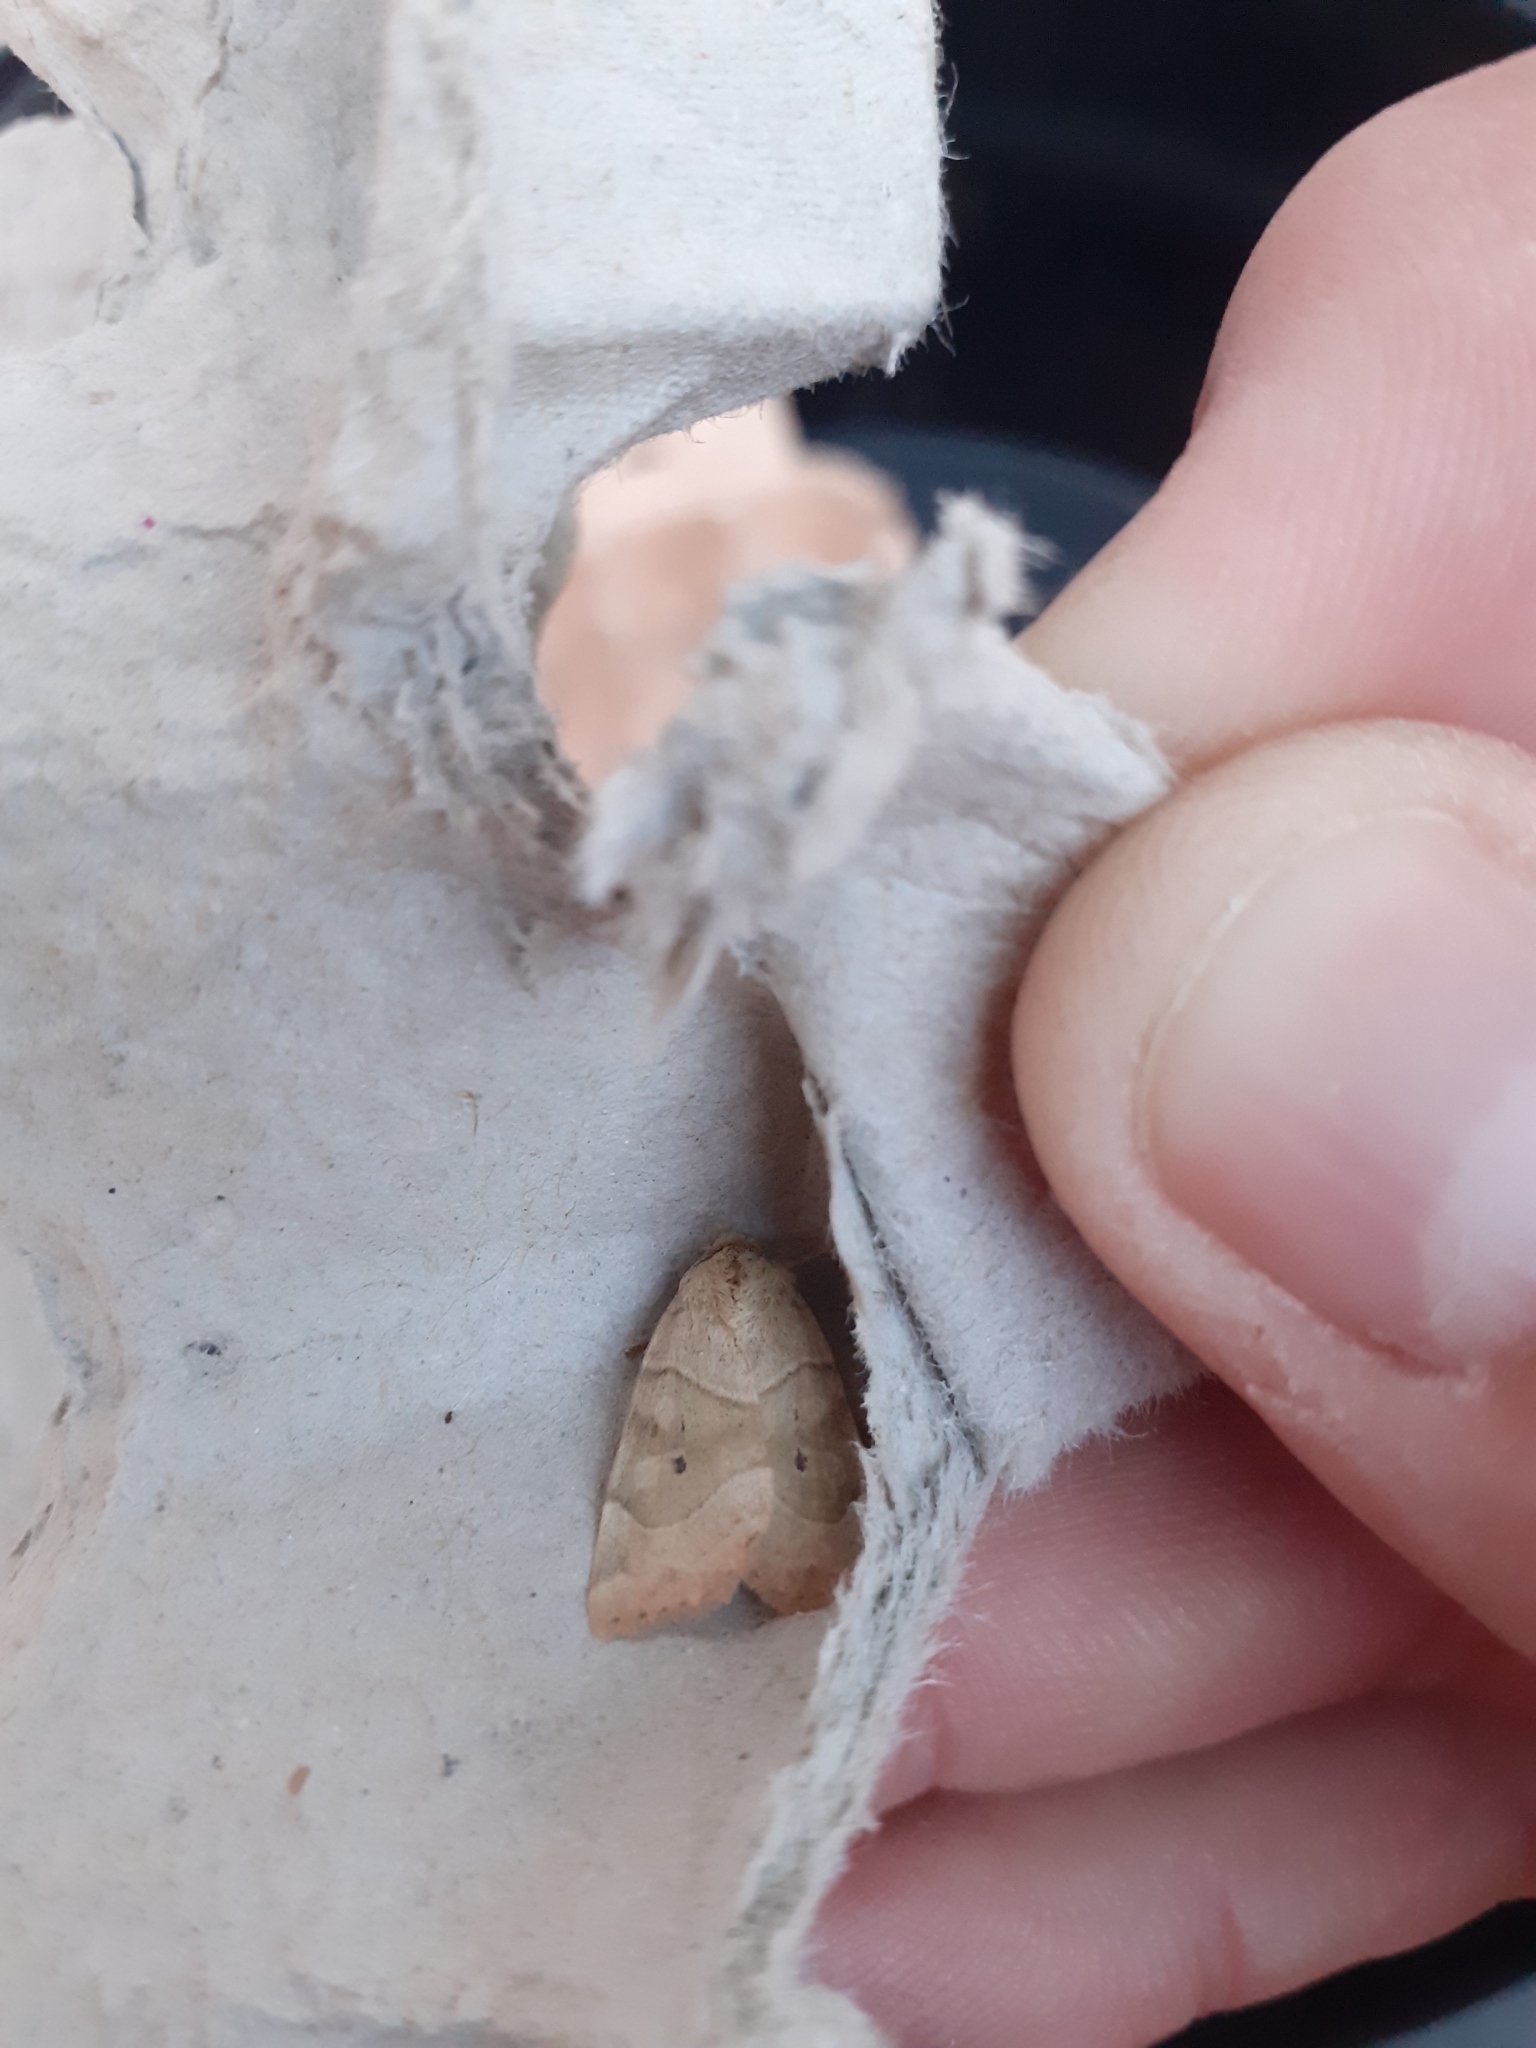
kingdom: Animalia
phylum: Arthropoda
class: Insecta
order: Lepidoptera
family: Noctuidae
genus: Cosmia
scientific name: Cosmia trapezina
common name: Dun-bar
